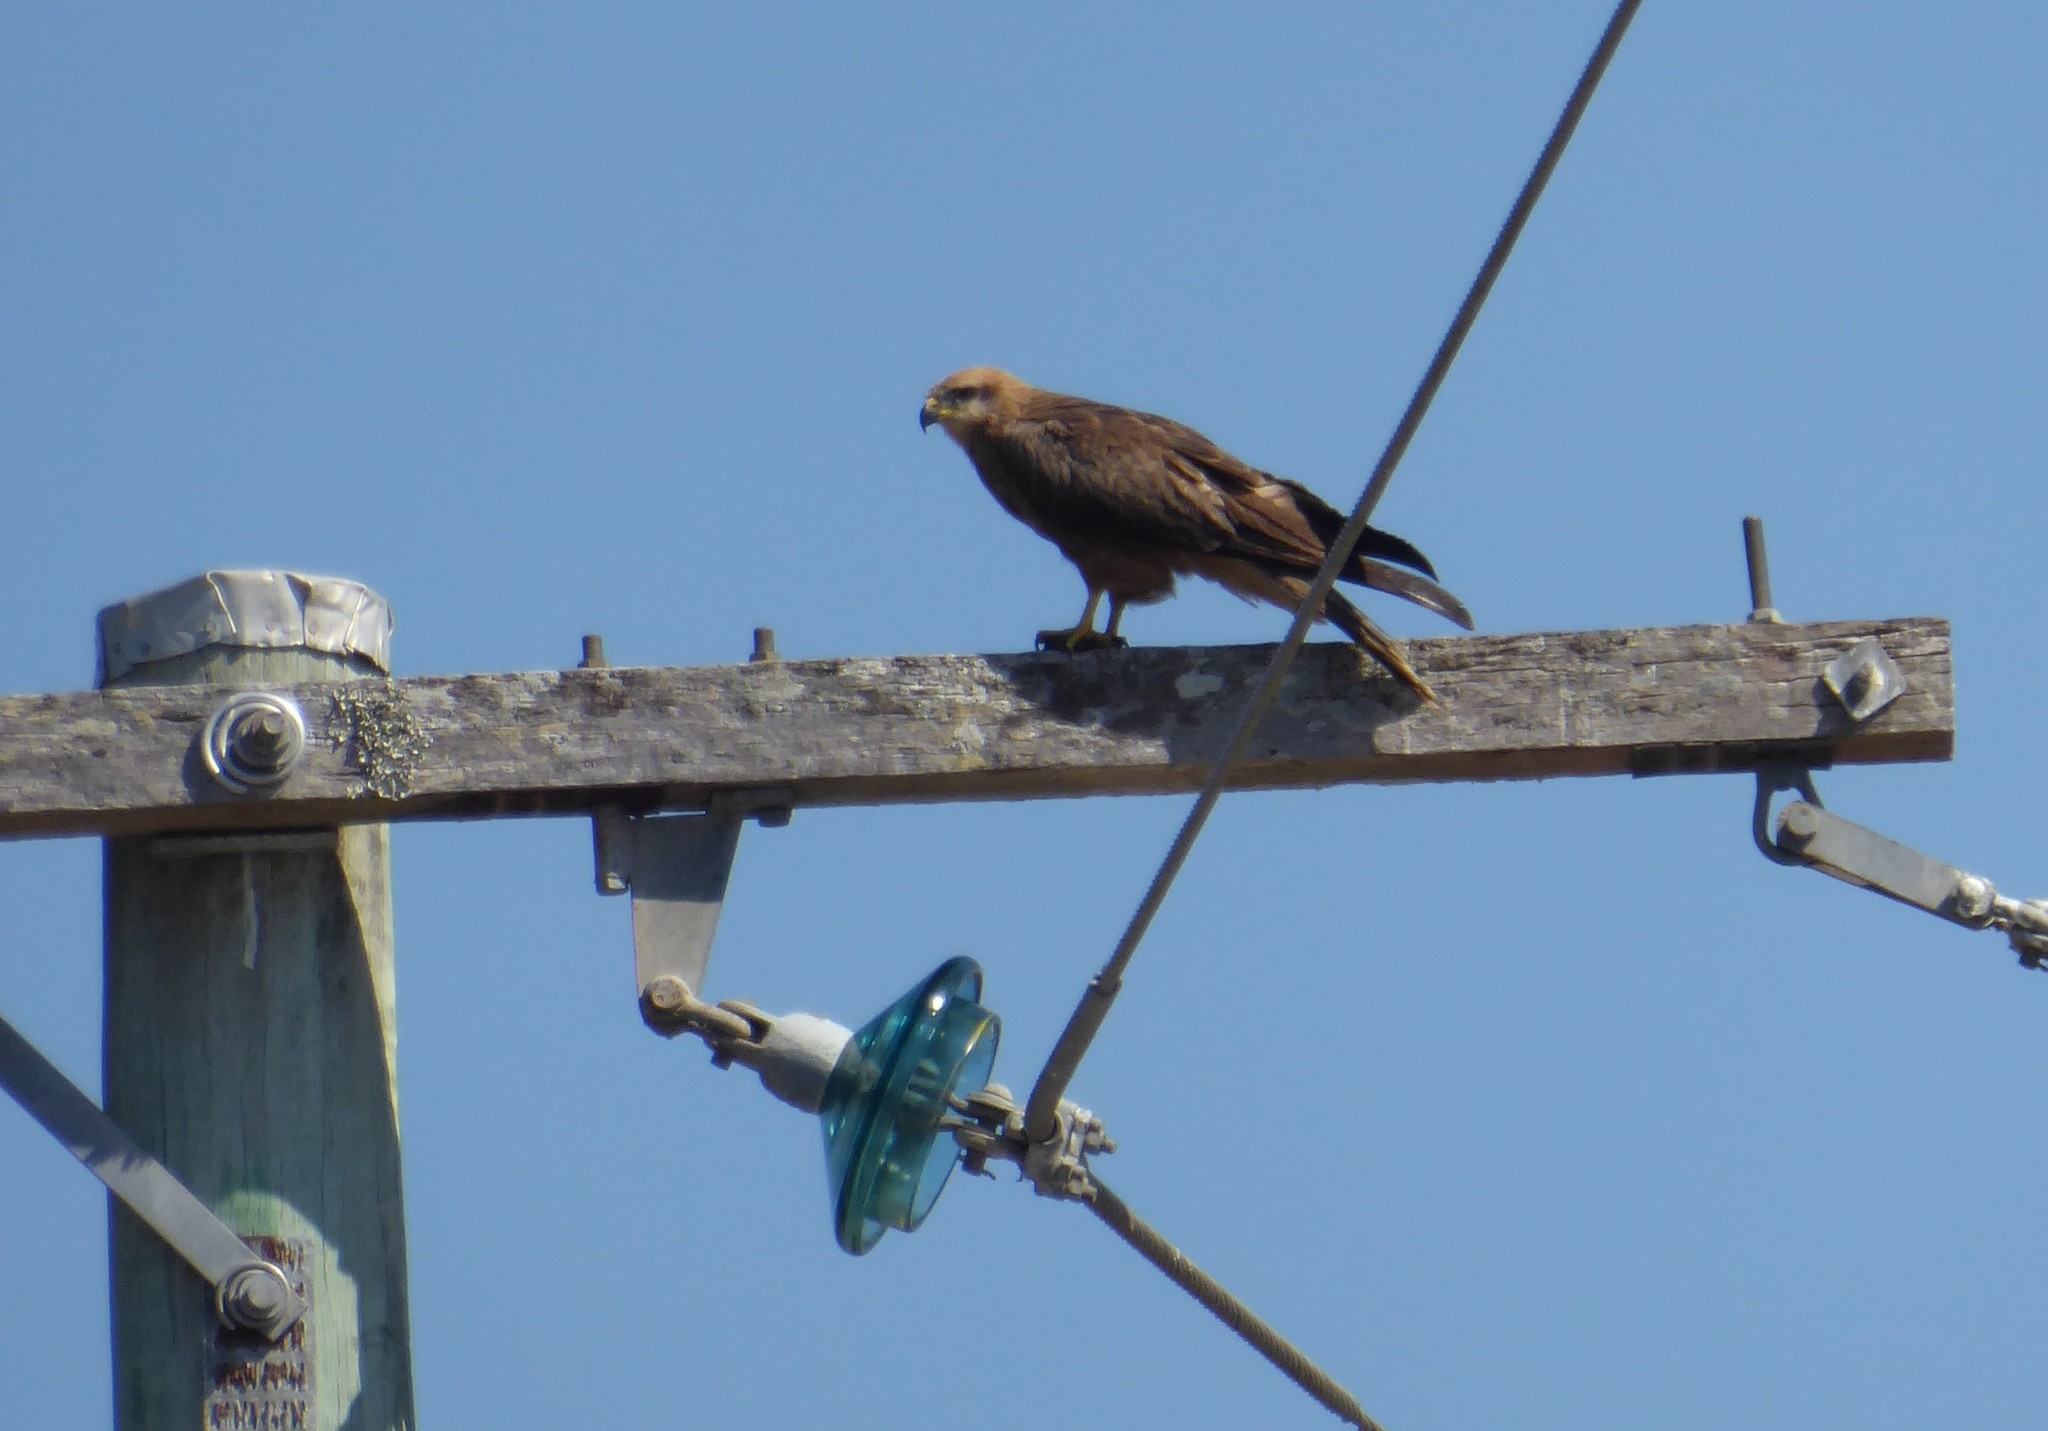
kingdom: Animalia
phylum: Chordata
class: Aves
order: Accipitriformes
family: Accipitridae
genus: Milvus
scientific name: Milvus migrans
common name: Black kite
